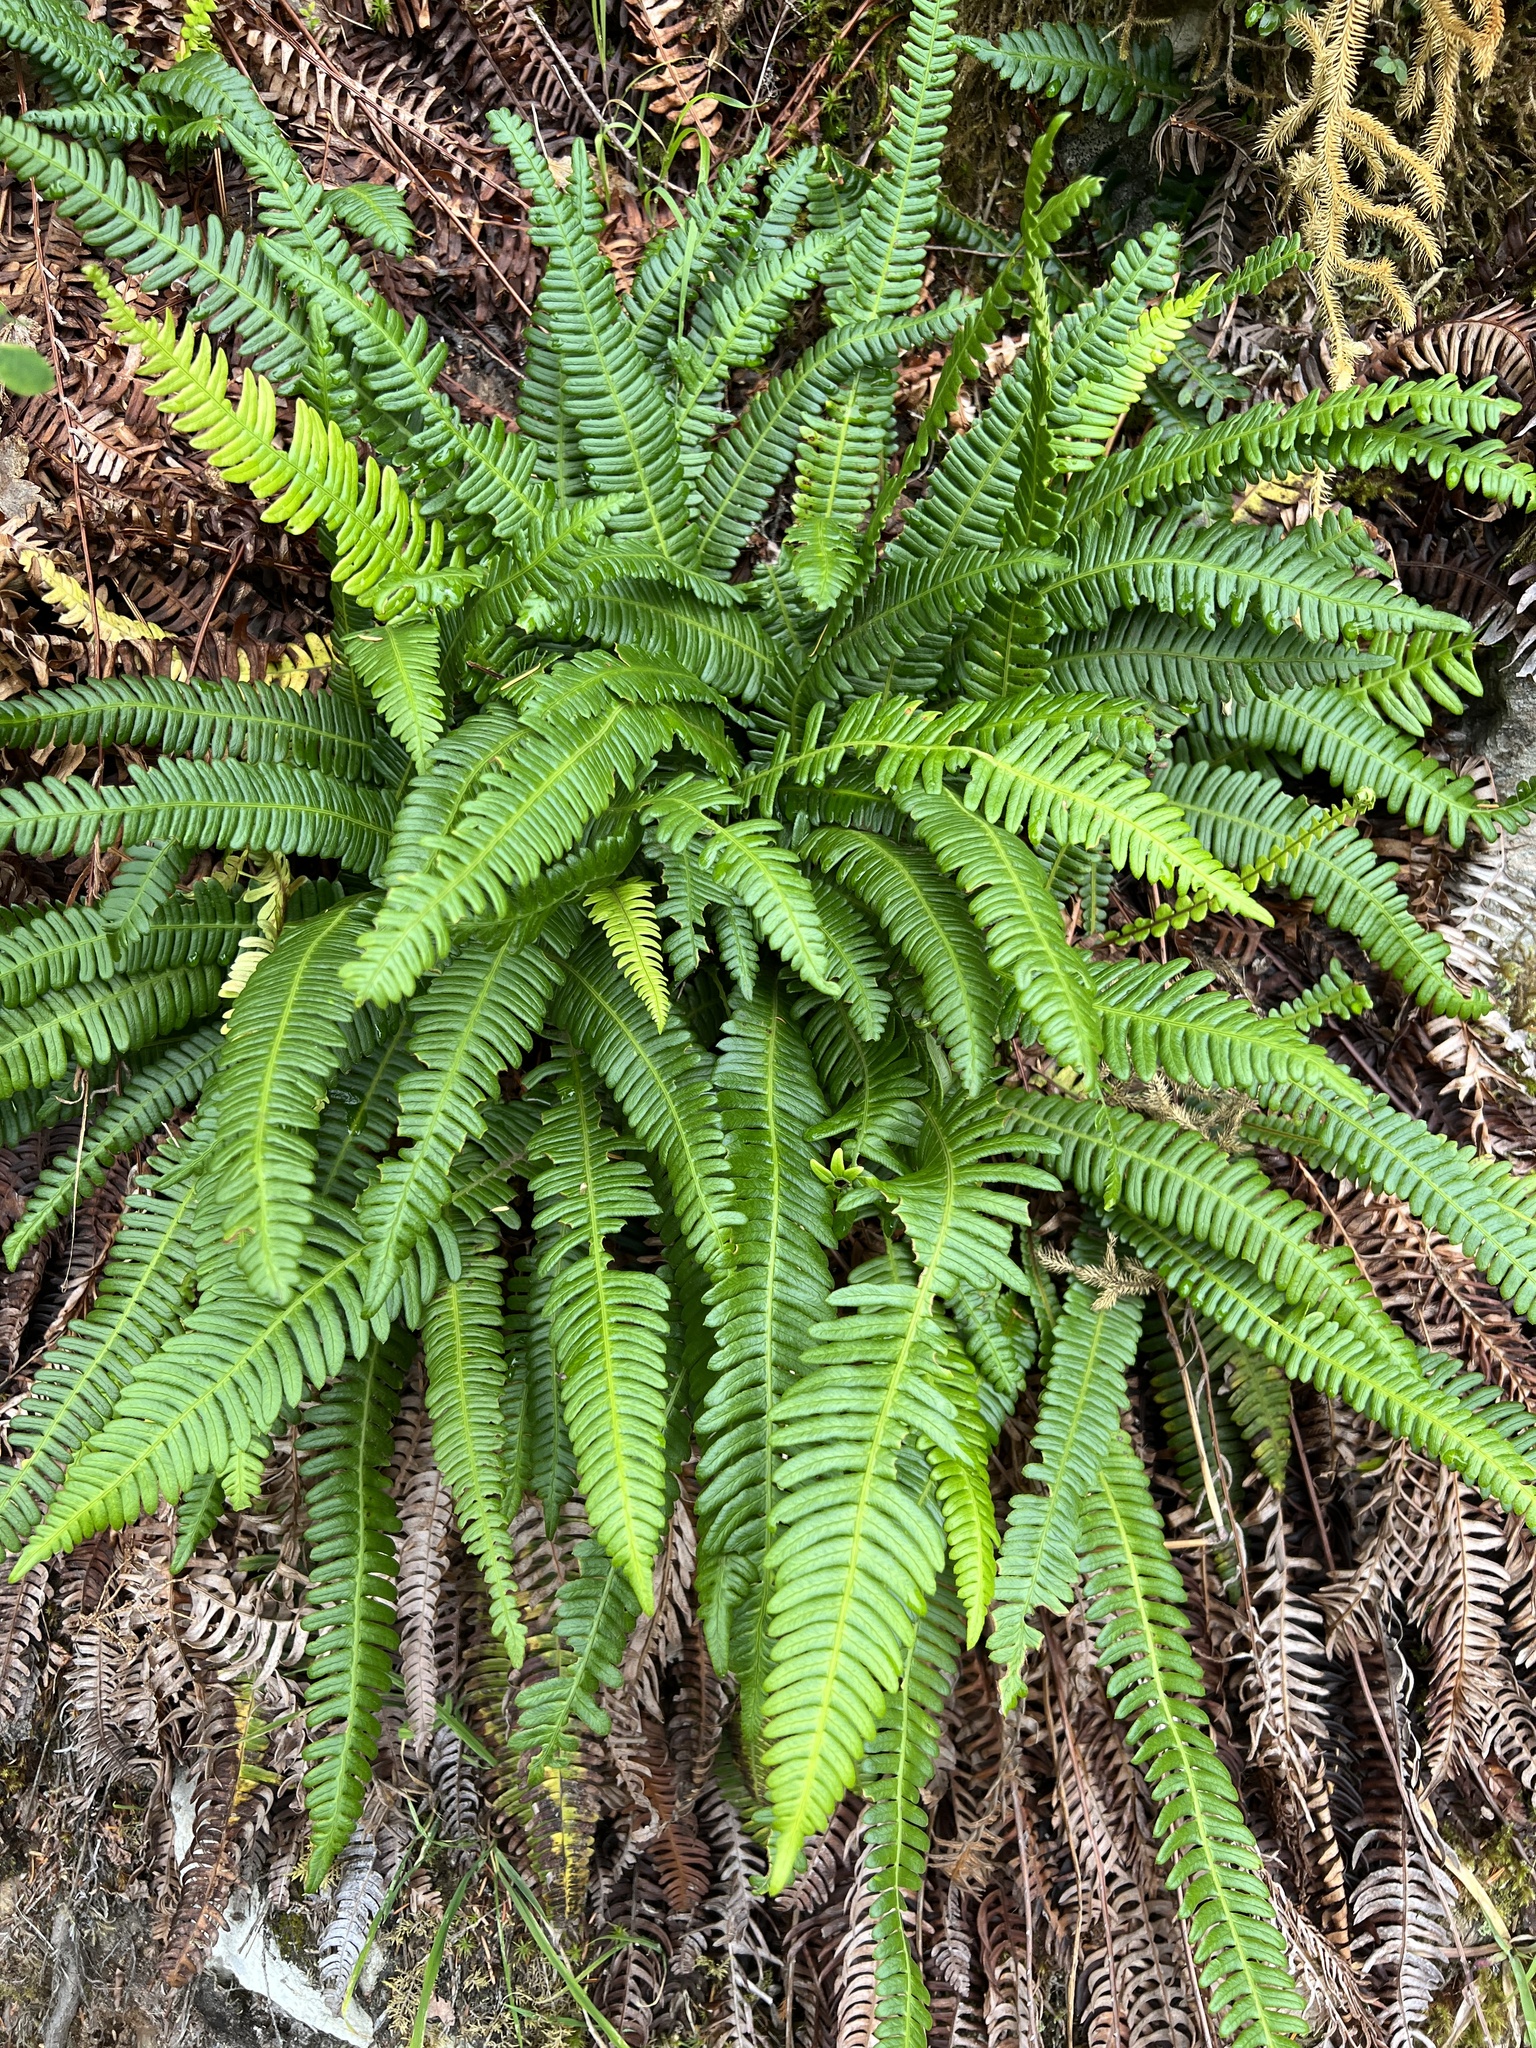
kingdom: Plantae
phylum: Tracheophyta
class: Polypodiopsida
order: Polypodiales
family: Blechnaceae
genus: Struthiopteris
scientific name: Struthiopteris spicant
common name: Deer fern
